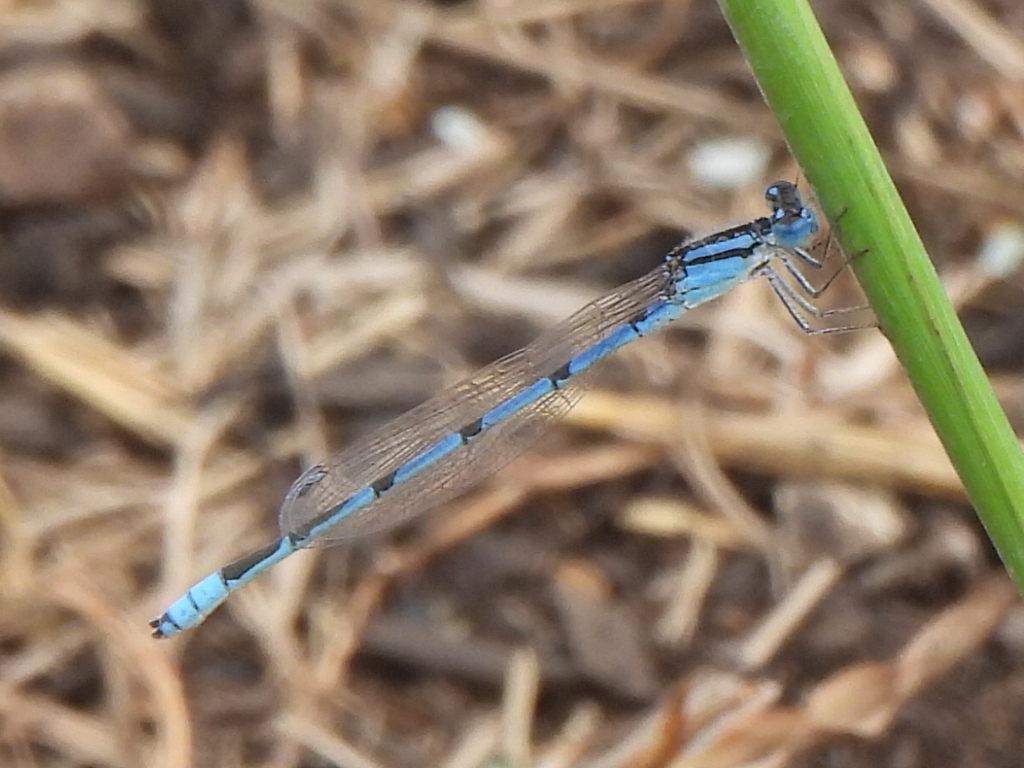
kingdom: Animalia
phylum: Arthropoda
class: Insecta
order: Odonata
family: Coenagrionidae
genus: Enallagma
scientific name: Enallagma civile
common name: Damselfly
